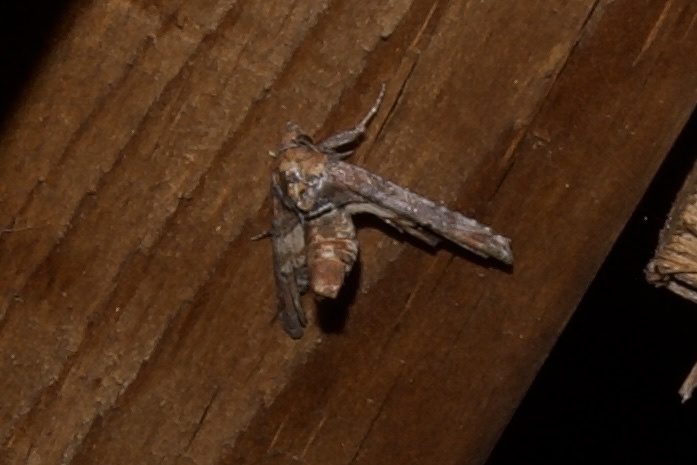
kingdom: Animalia
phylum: Arthropoda
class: Insecta
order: Lepidoptera
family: Euteliidae
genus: Marathyssa
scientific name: Marathyssa inficita
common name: Dark marathyssa moth
